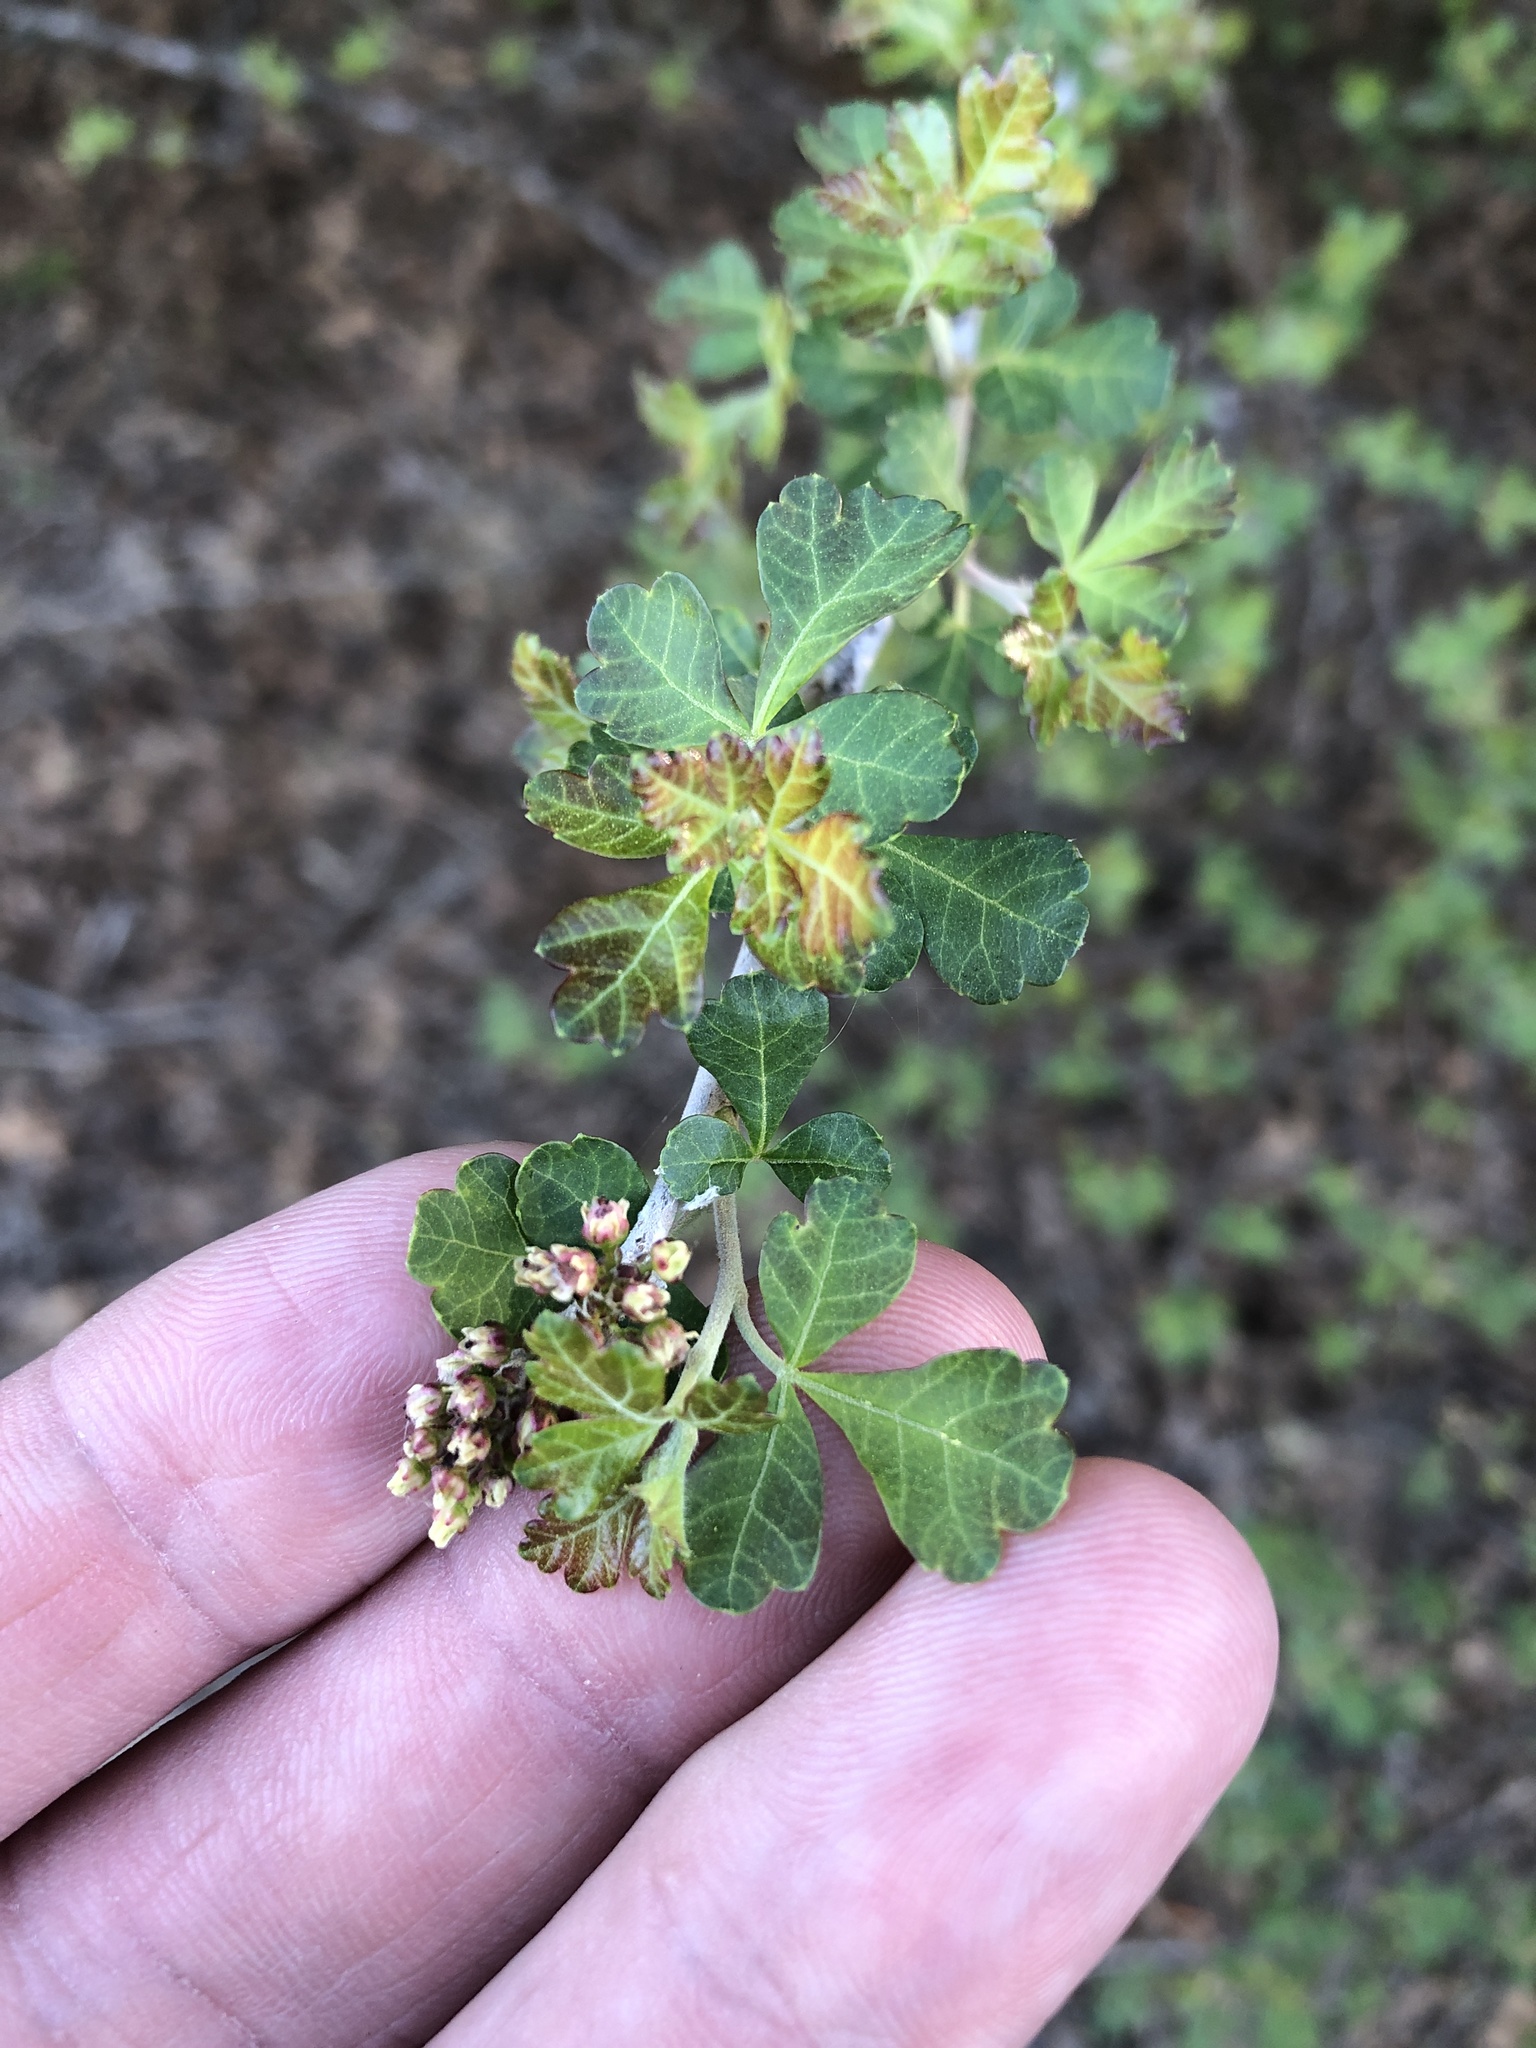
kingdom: Plantae
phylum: Tracheophyta
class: Magnoliopsida
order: Sapindales
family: Anacardiaceae
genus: Rhus
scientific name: Rhus aromatica
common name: Aromatic sumac
